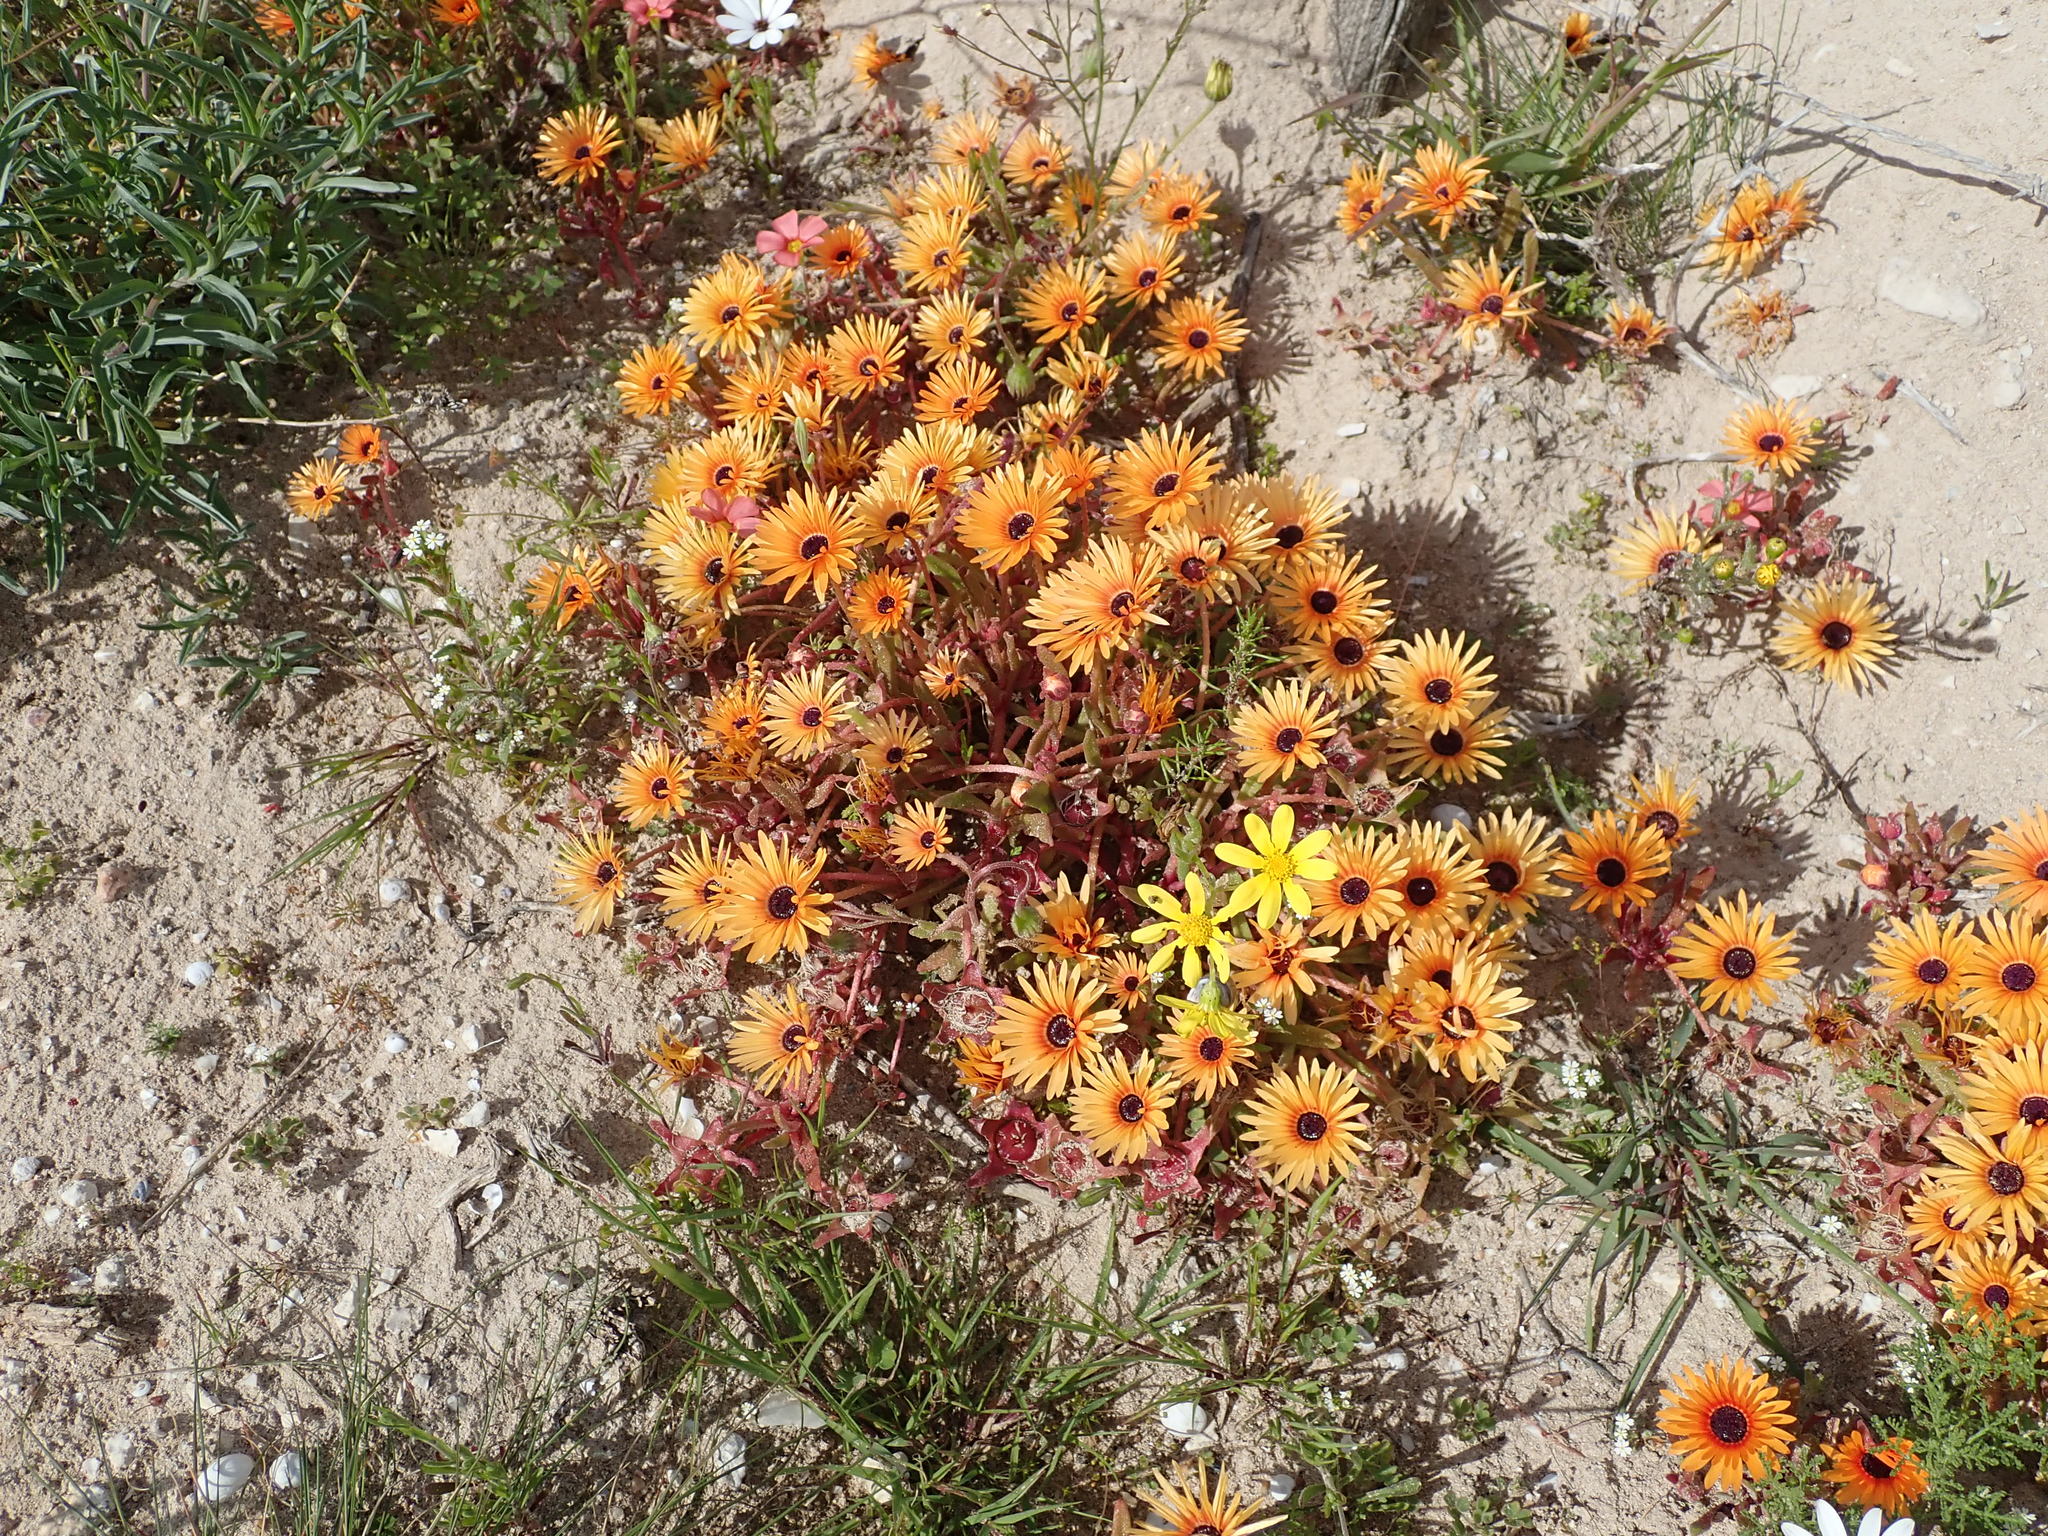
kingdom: Plantae
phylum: Tracheophyta
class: Magnoliopsida
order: Caryophyllales
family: Aizoaceae
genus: Cleretum
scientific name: Cleretum bellidiforme
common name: Livingstone daisy
